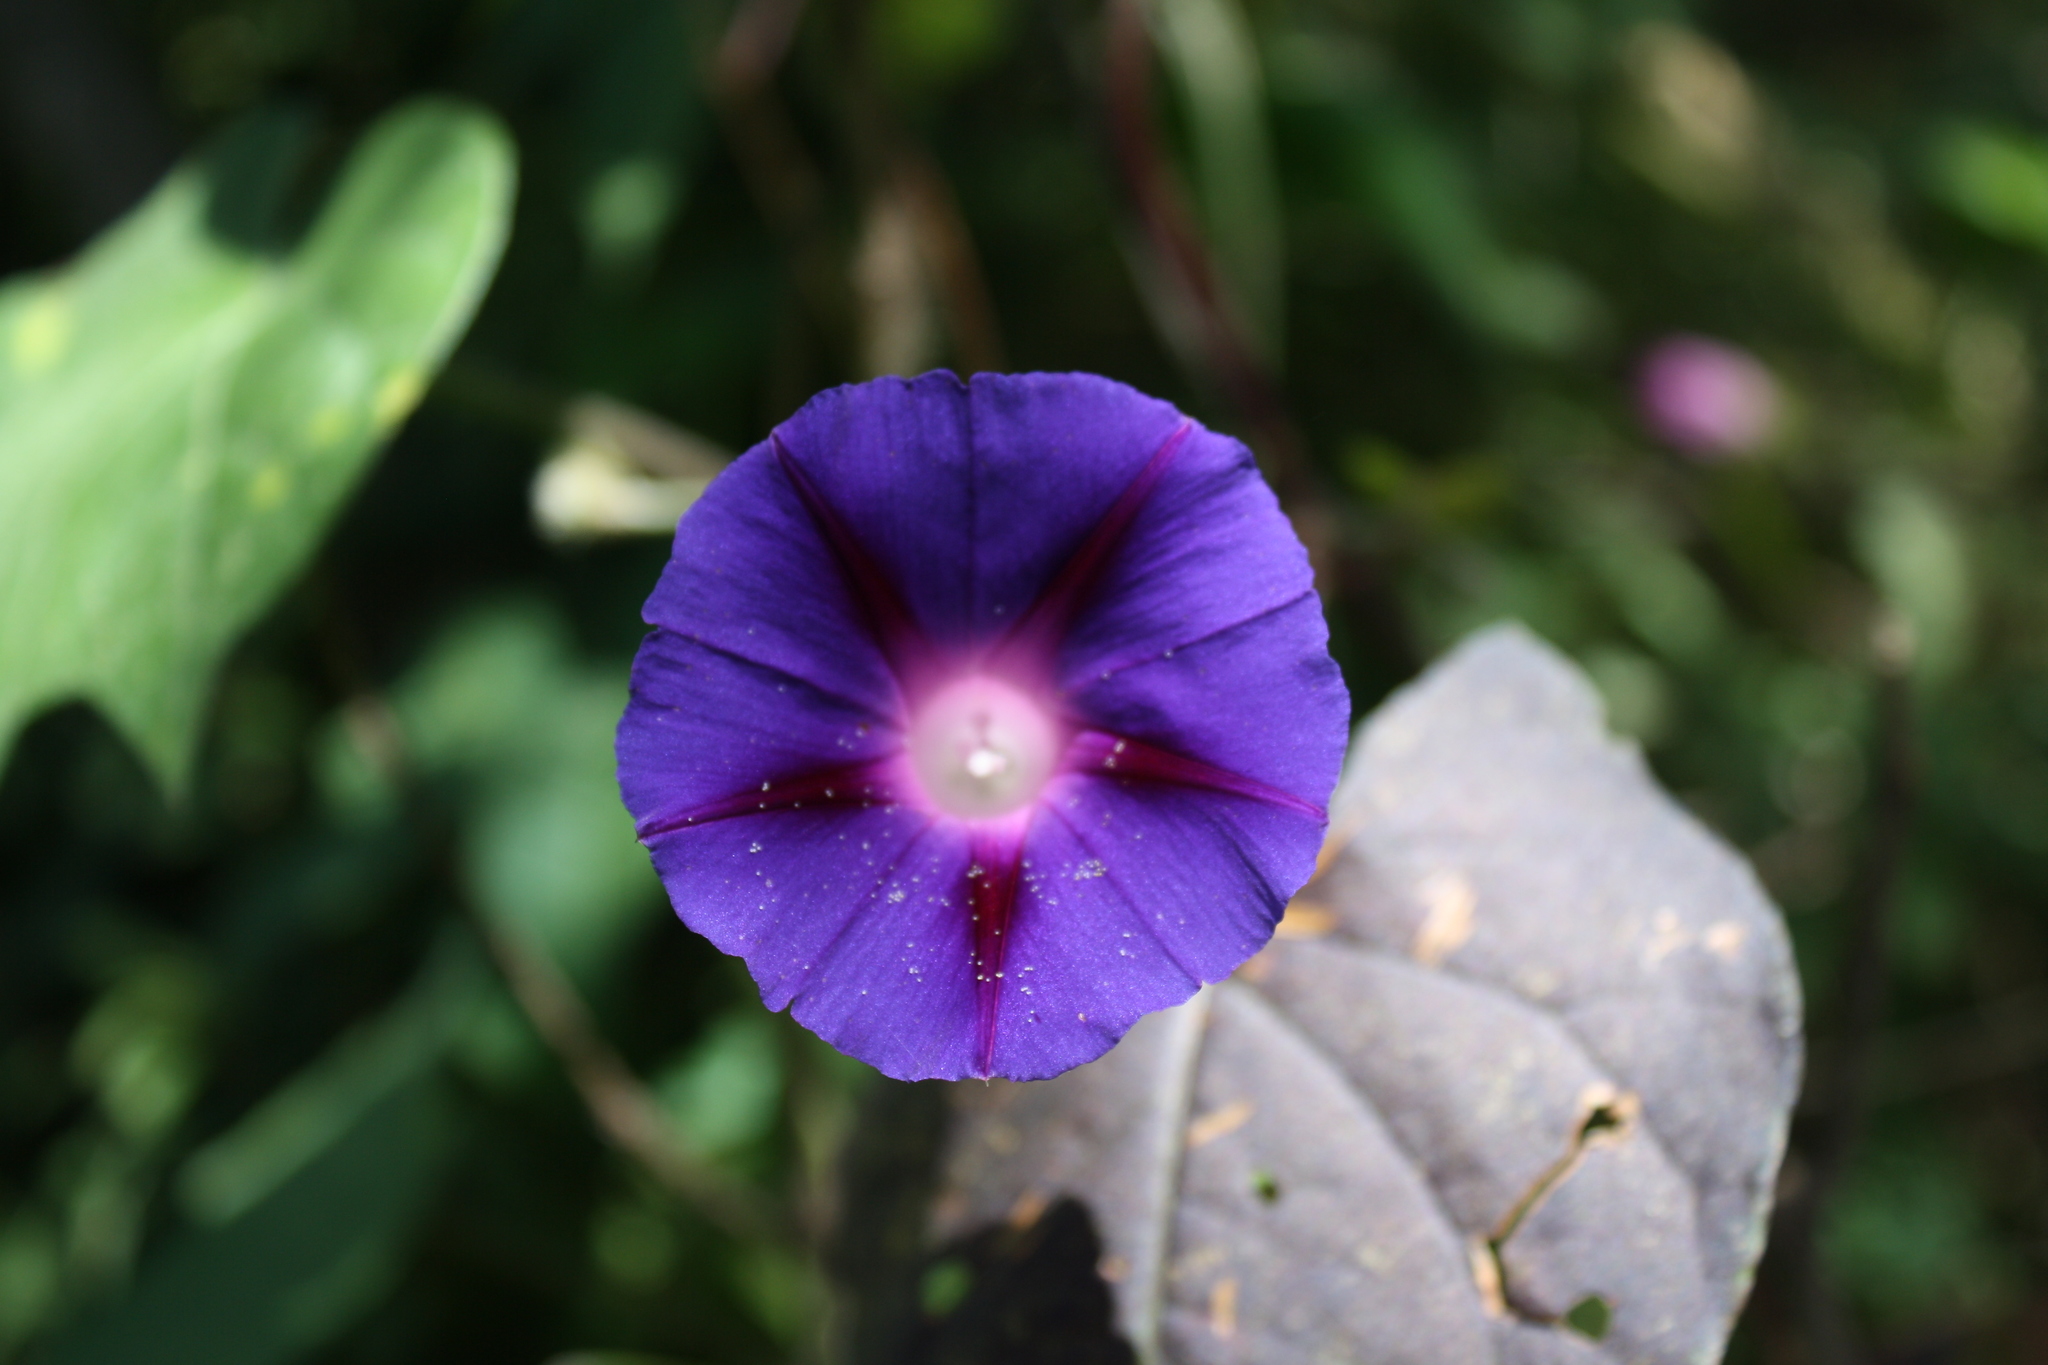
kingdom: Plantae
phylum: Tracheophyta
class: Magnoliopsida
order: Solanales
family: Convolvulaceae
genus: Ipomoea
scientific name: Ipomoea purpurea
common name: Common morning-glory
